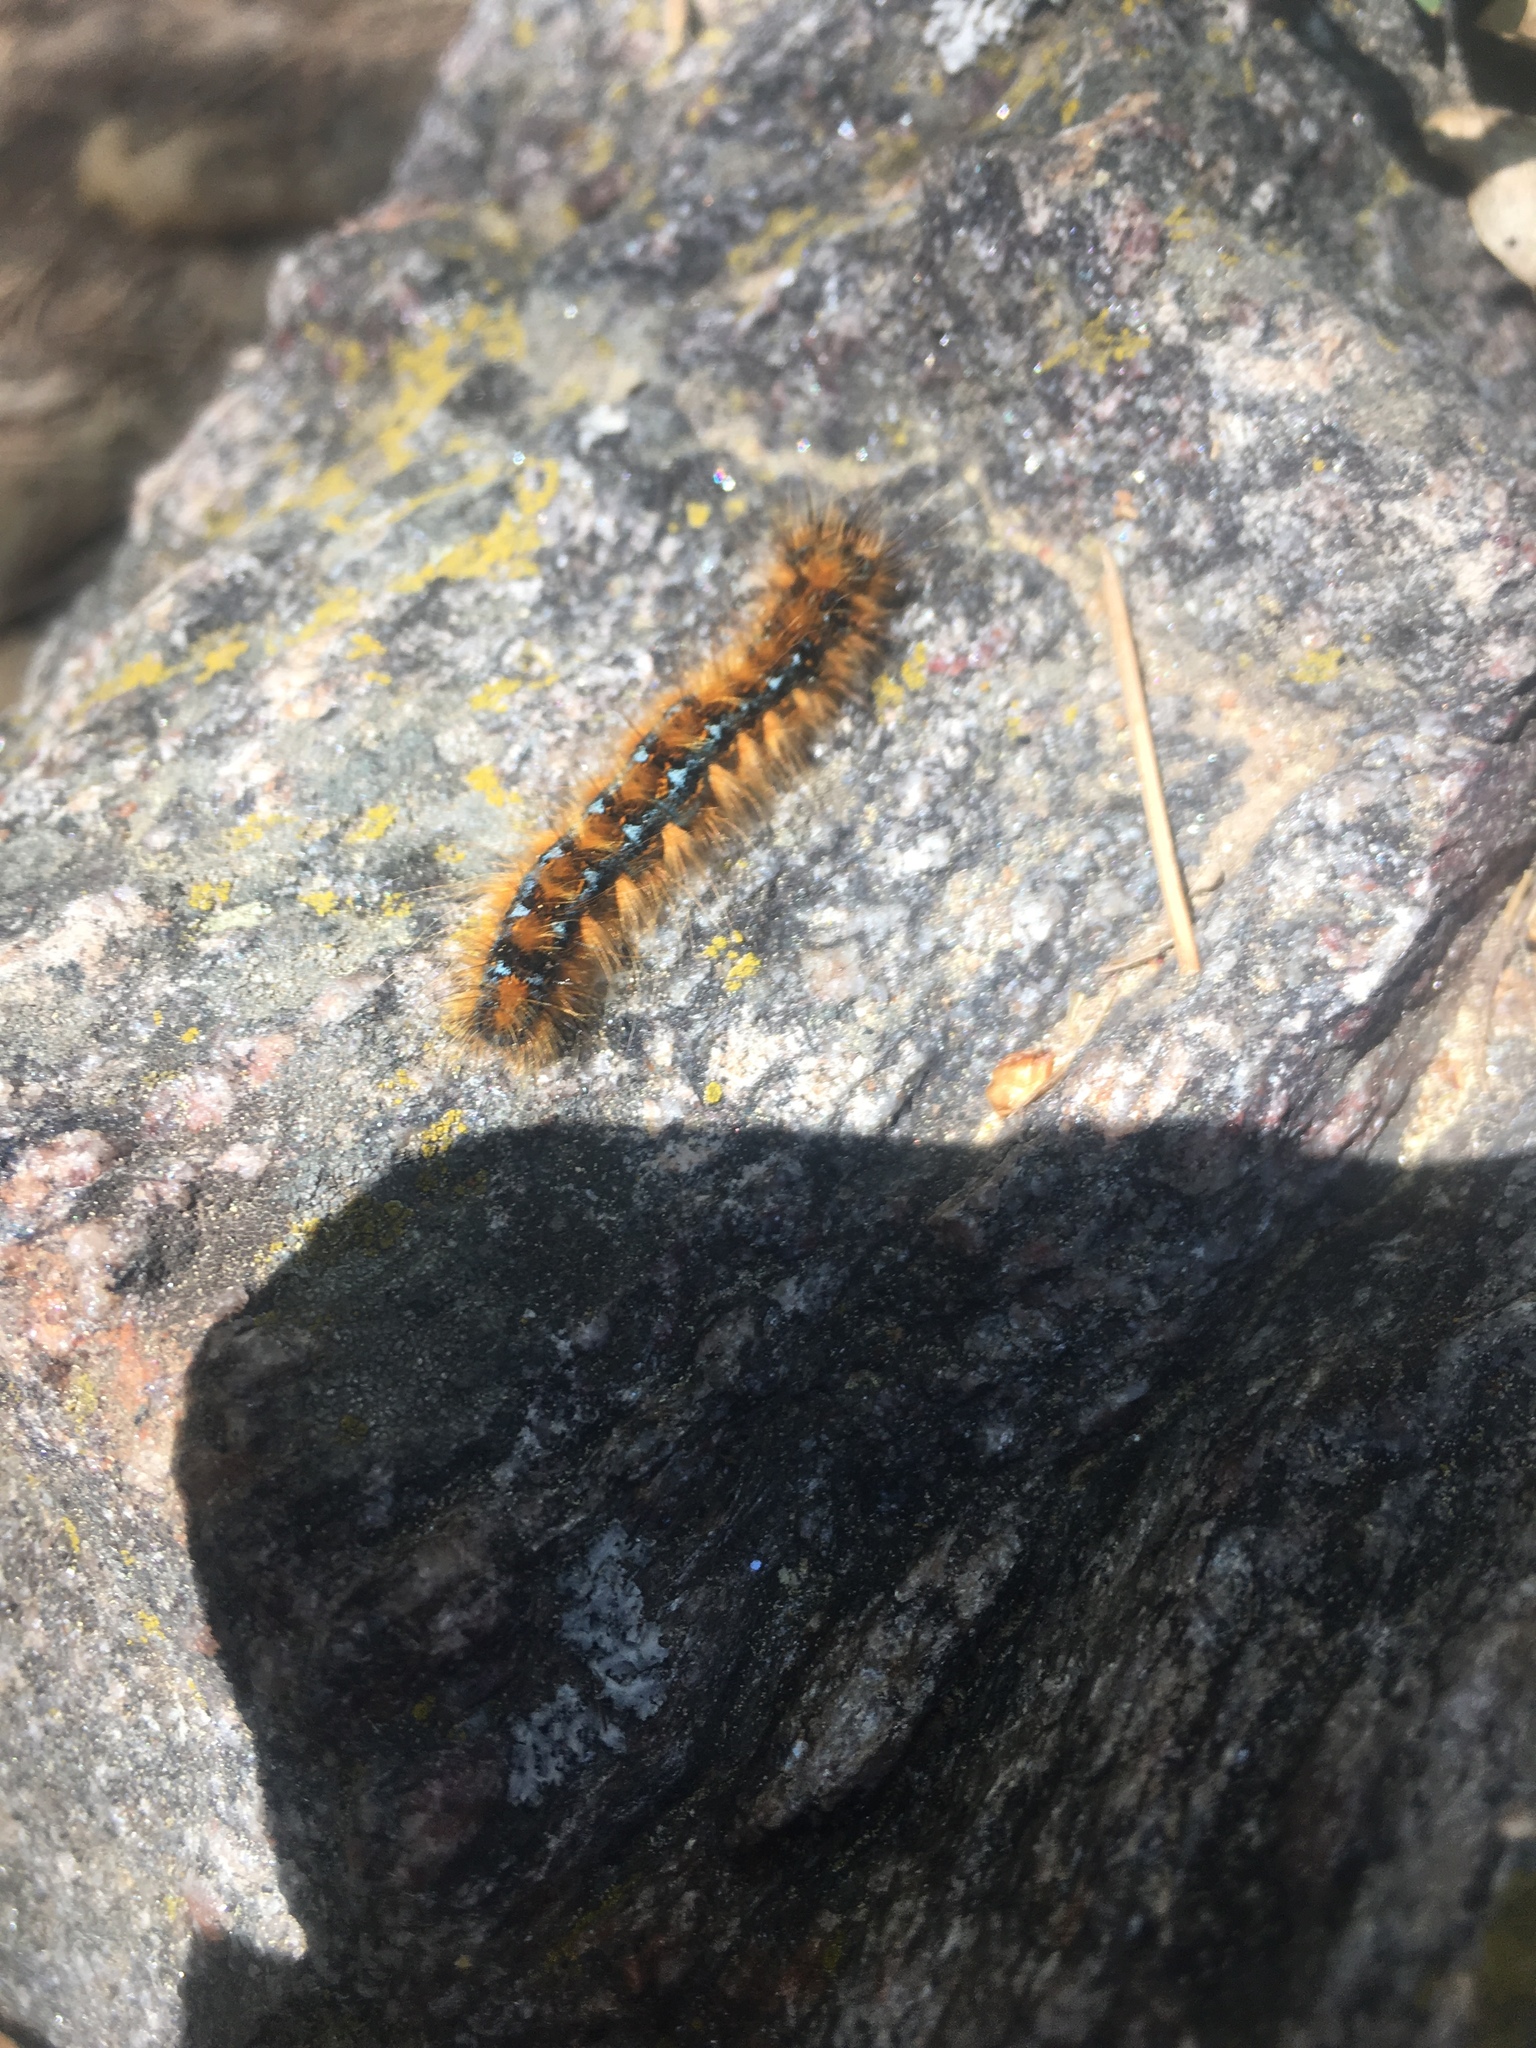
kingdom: Animalia
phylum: Arthropoda
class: Insecta
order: Lepidoptera
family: Lasiocampidae
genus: Malacosoma
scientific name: Malacosoma constricta
